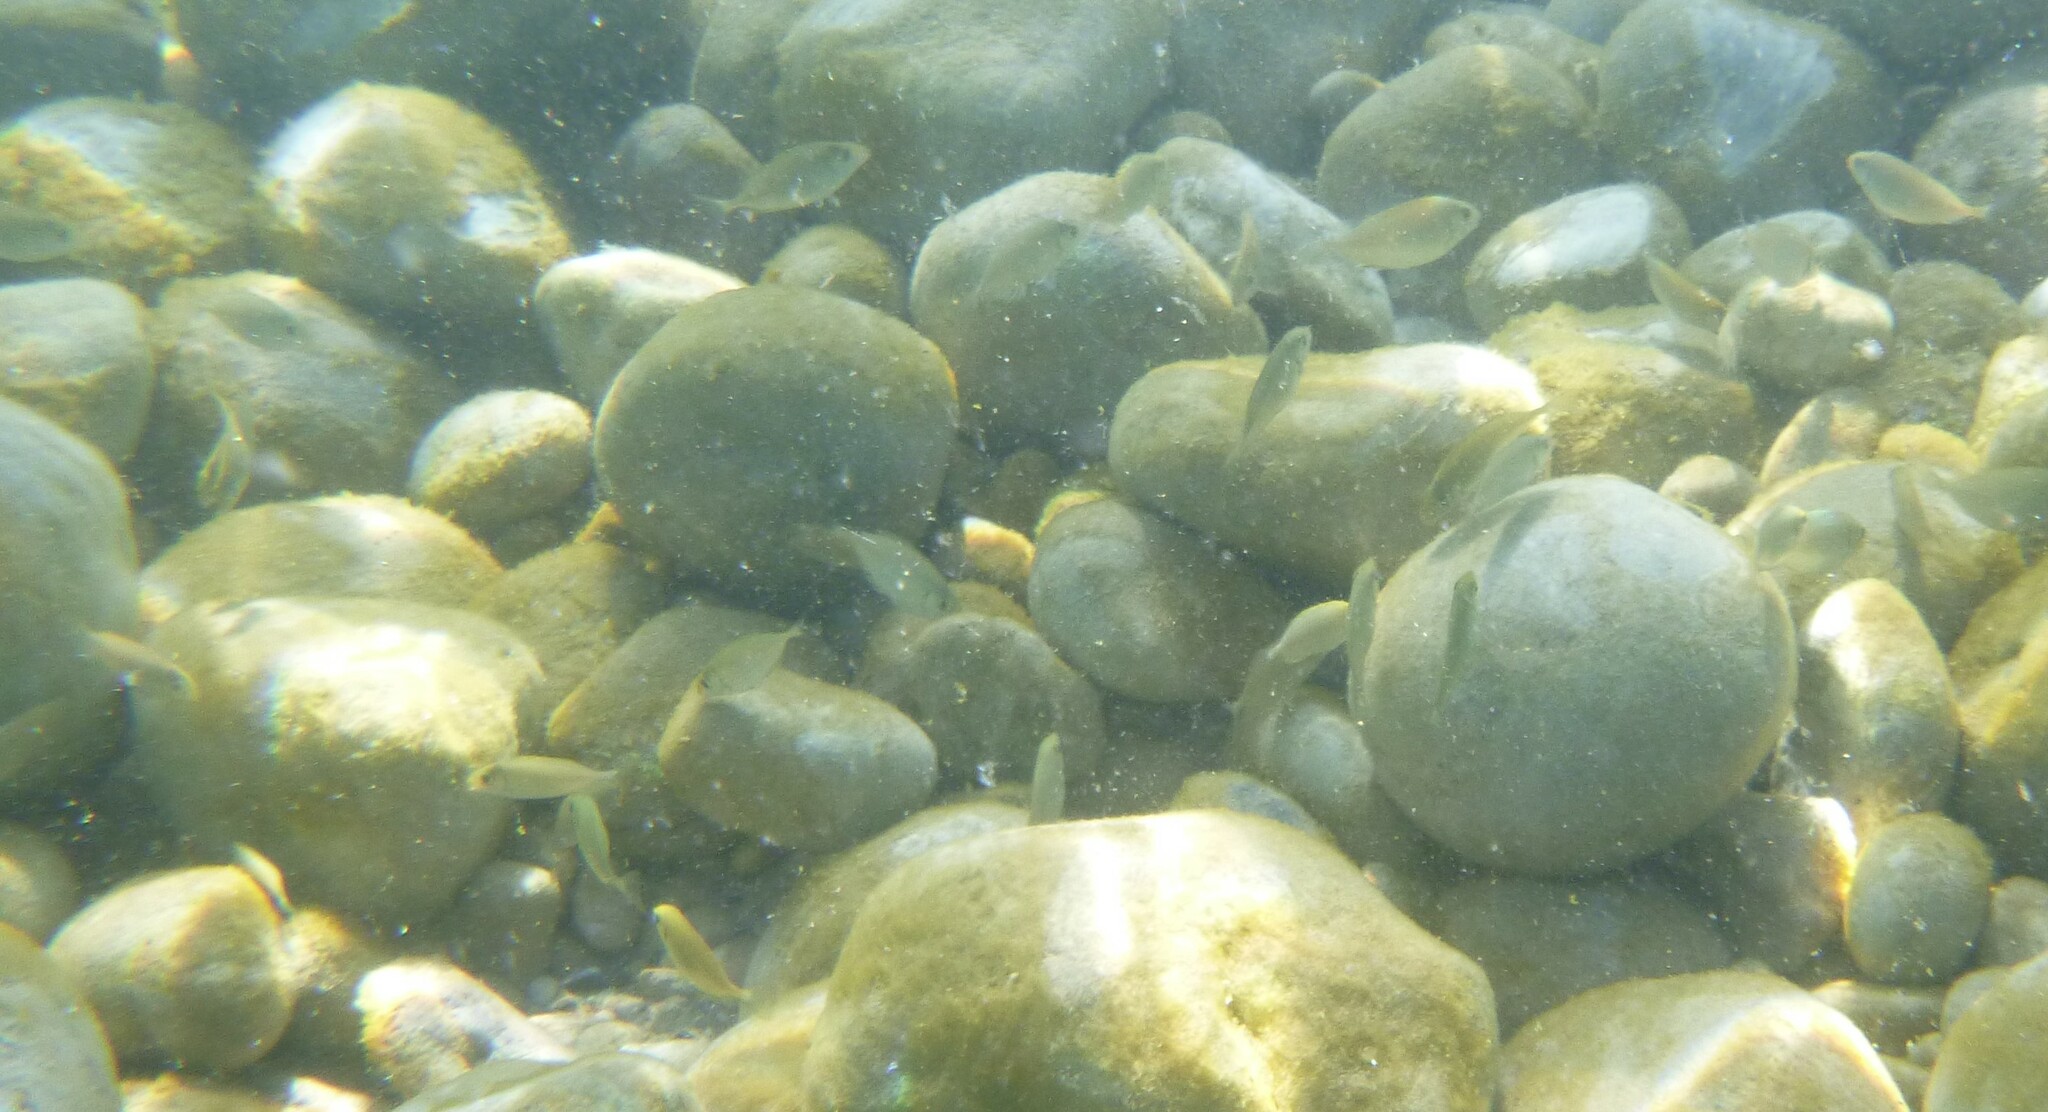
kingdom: Animalia
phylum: Chordata
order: Perciformes
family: Siganidae
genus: Siganus
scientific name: Siganus
